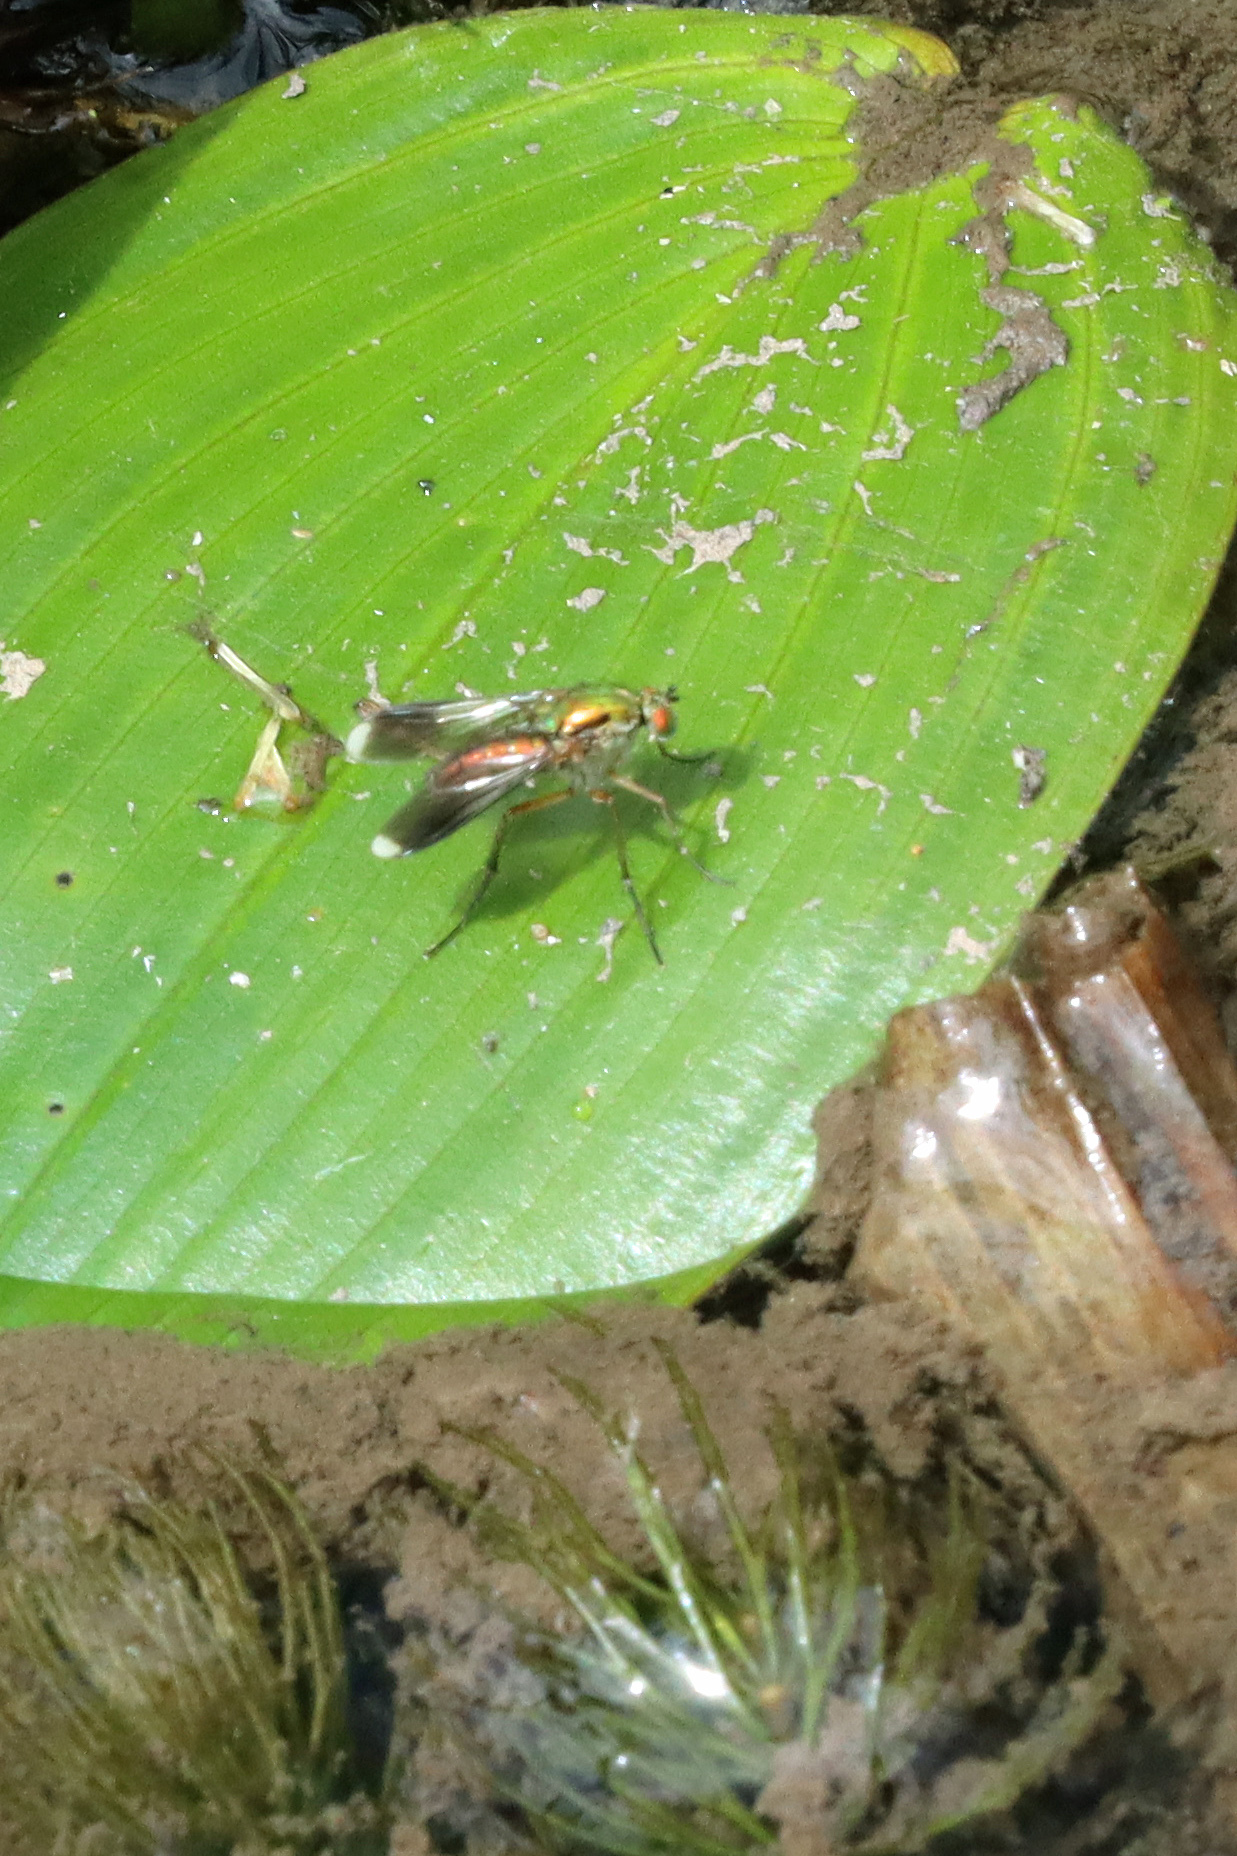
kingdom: Animalia
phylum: Arthropoda
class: Insecta
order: Diptera
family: Dolichopodidae
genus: Poecilobothrus
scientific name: Poecilobothrus nobilitatus
